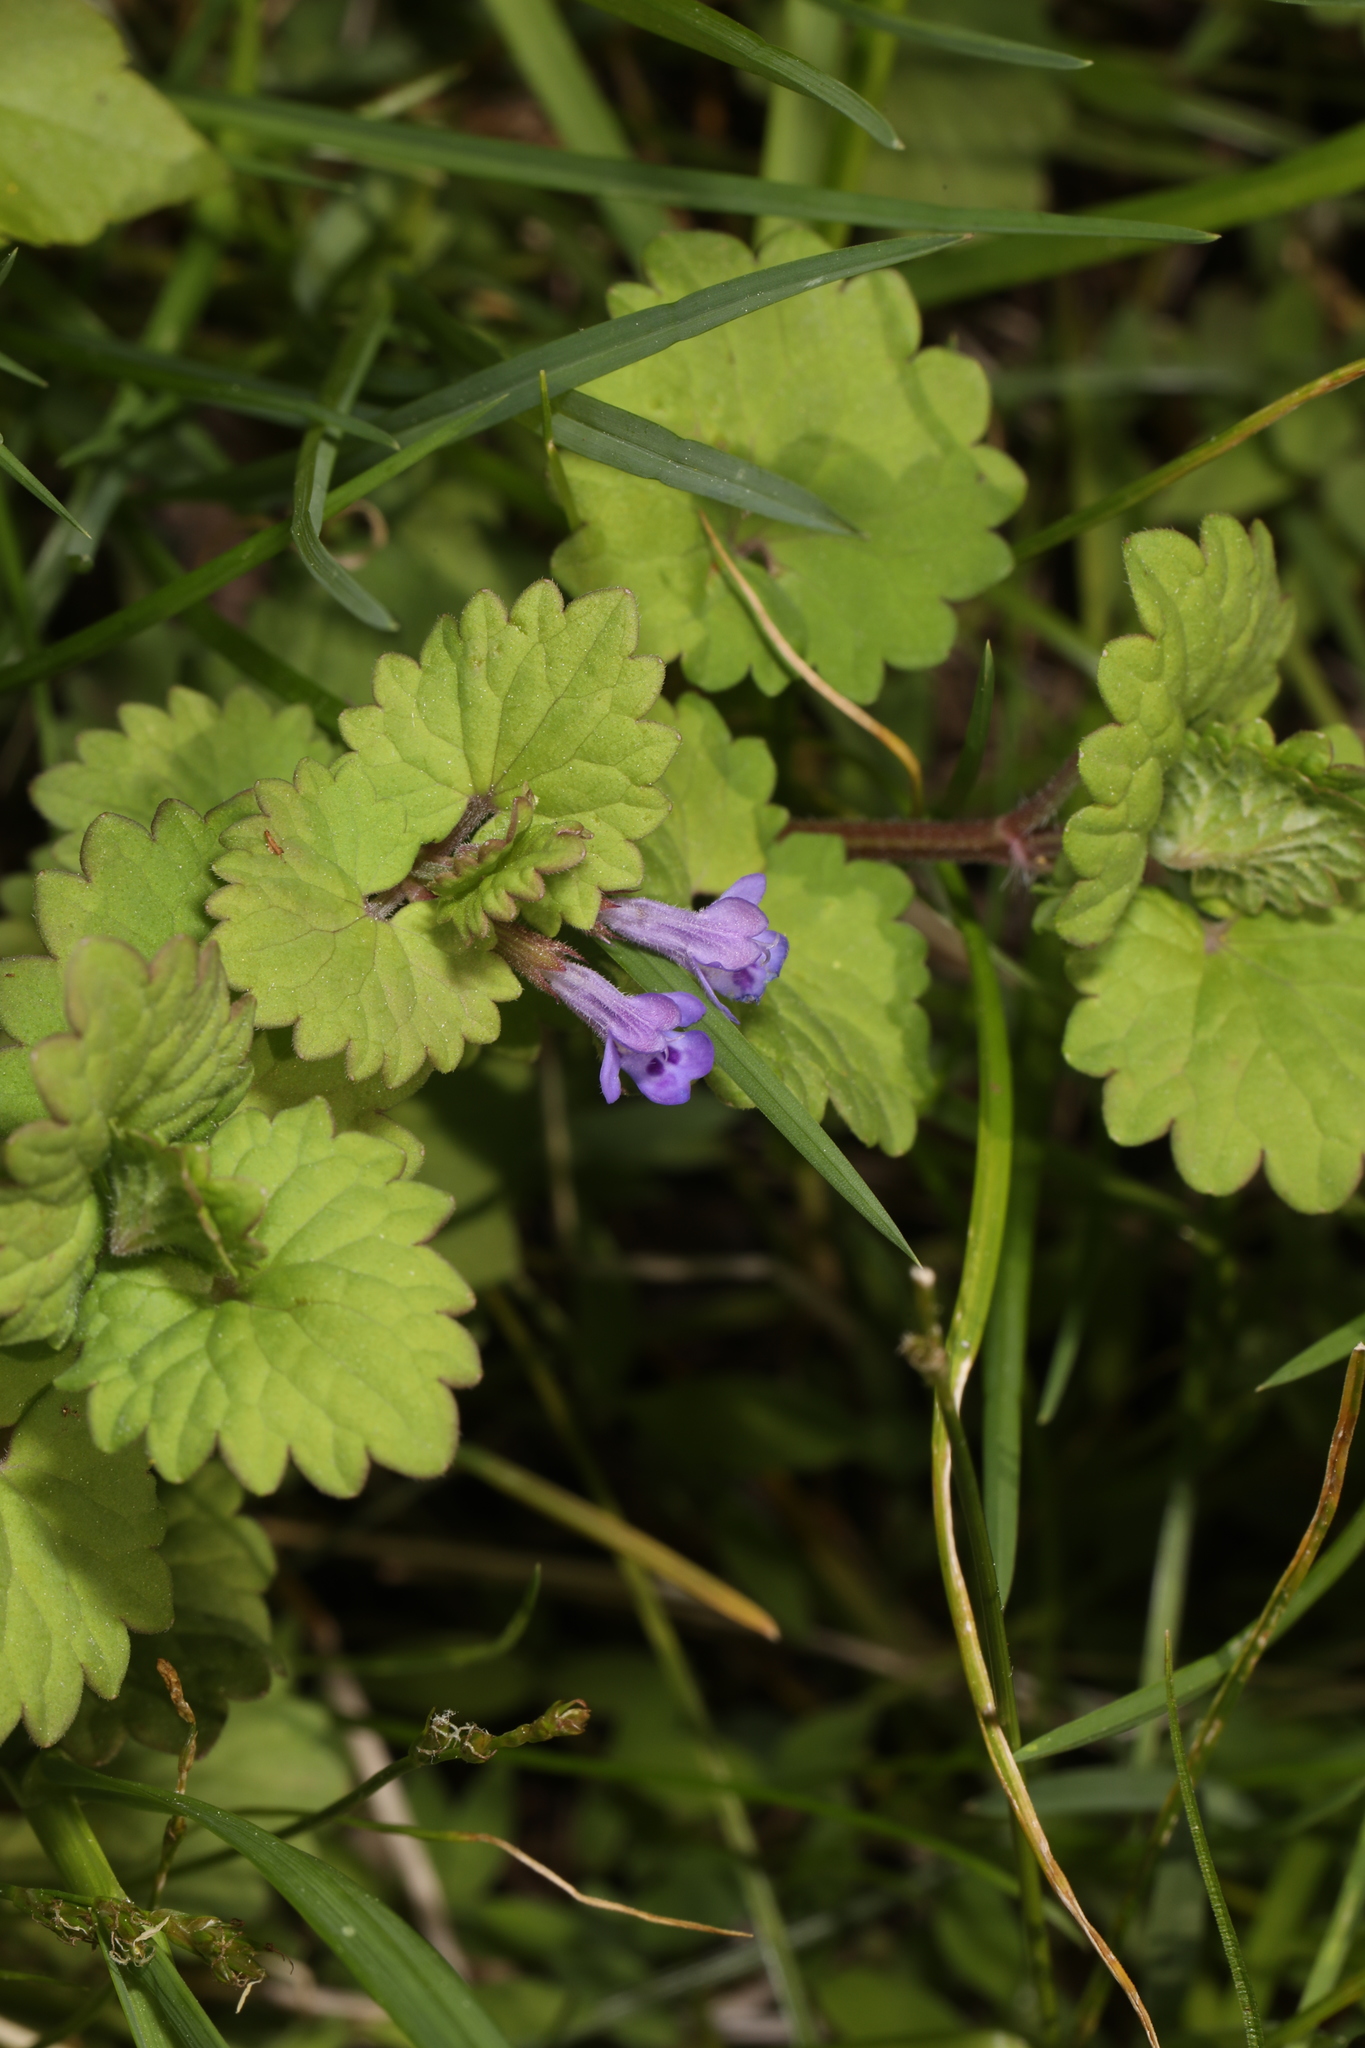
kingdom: Plantae
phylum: Tracheophyta
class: Magnoliopsida
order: Lamiales
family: Lamiaceae
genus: Glechoma
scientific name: Glechoma hederacea
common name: Ground ivy
